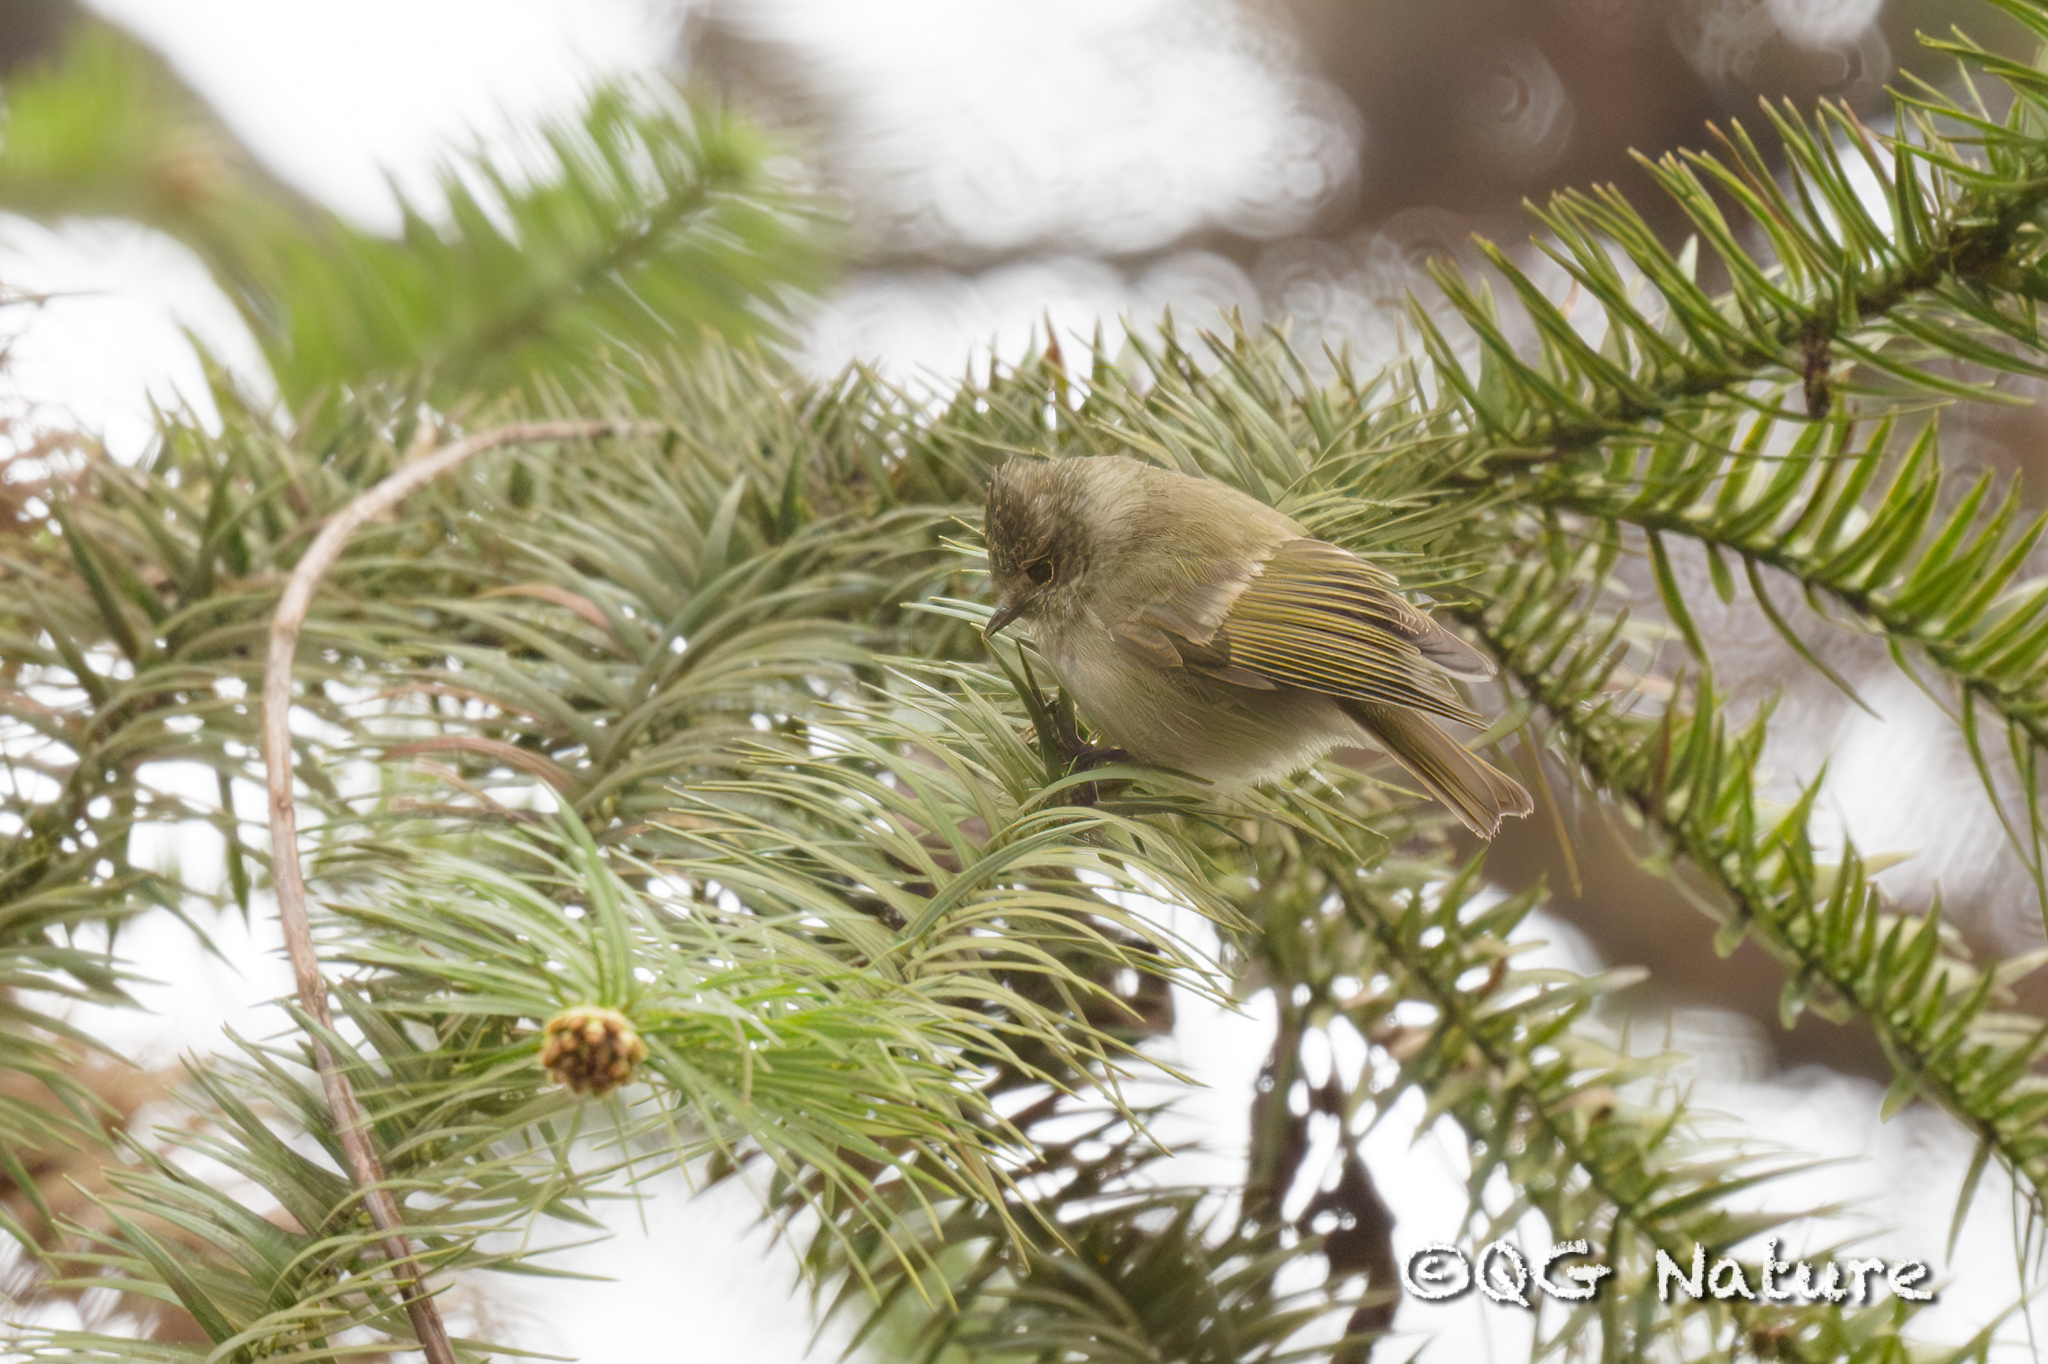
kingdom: Animalia
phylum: Chordata
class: Aves
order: Passeriformes
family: Paridae
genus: Sylviparus
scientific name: Sylviparus modestus
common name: Yellow-browed tit
